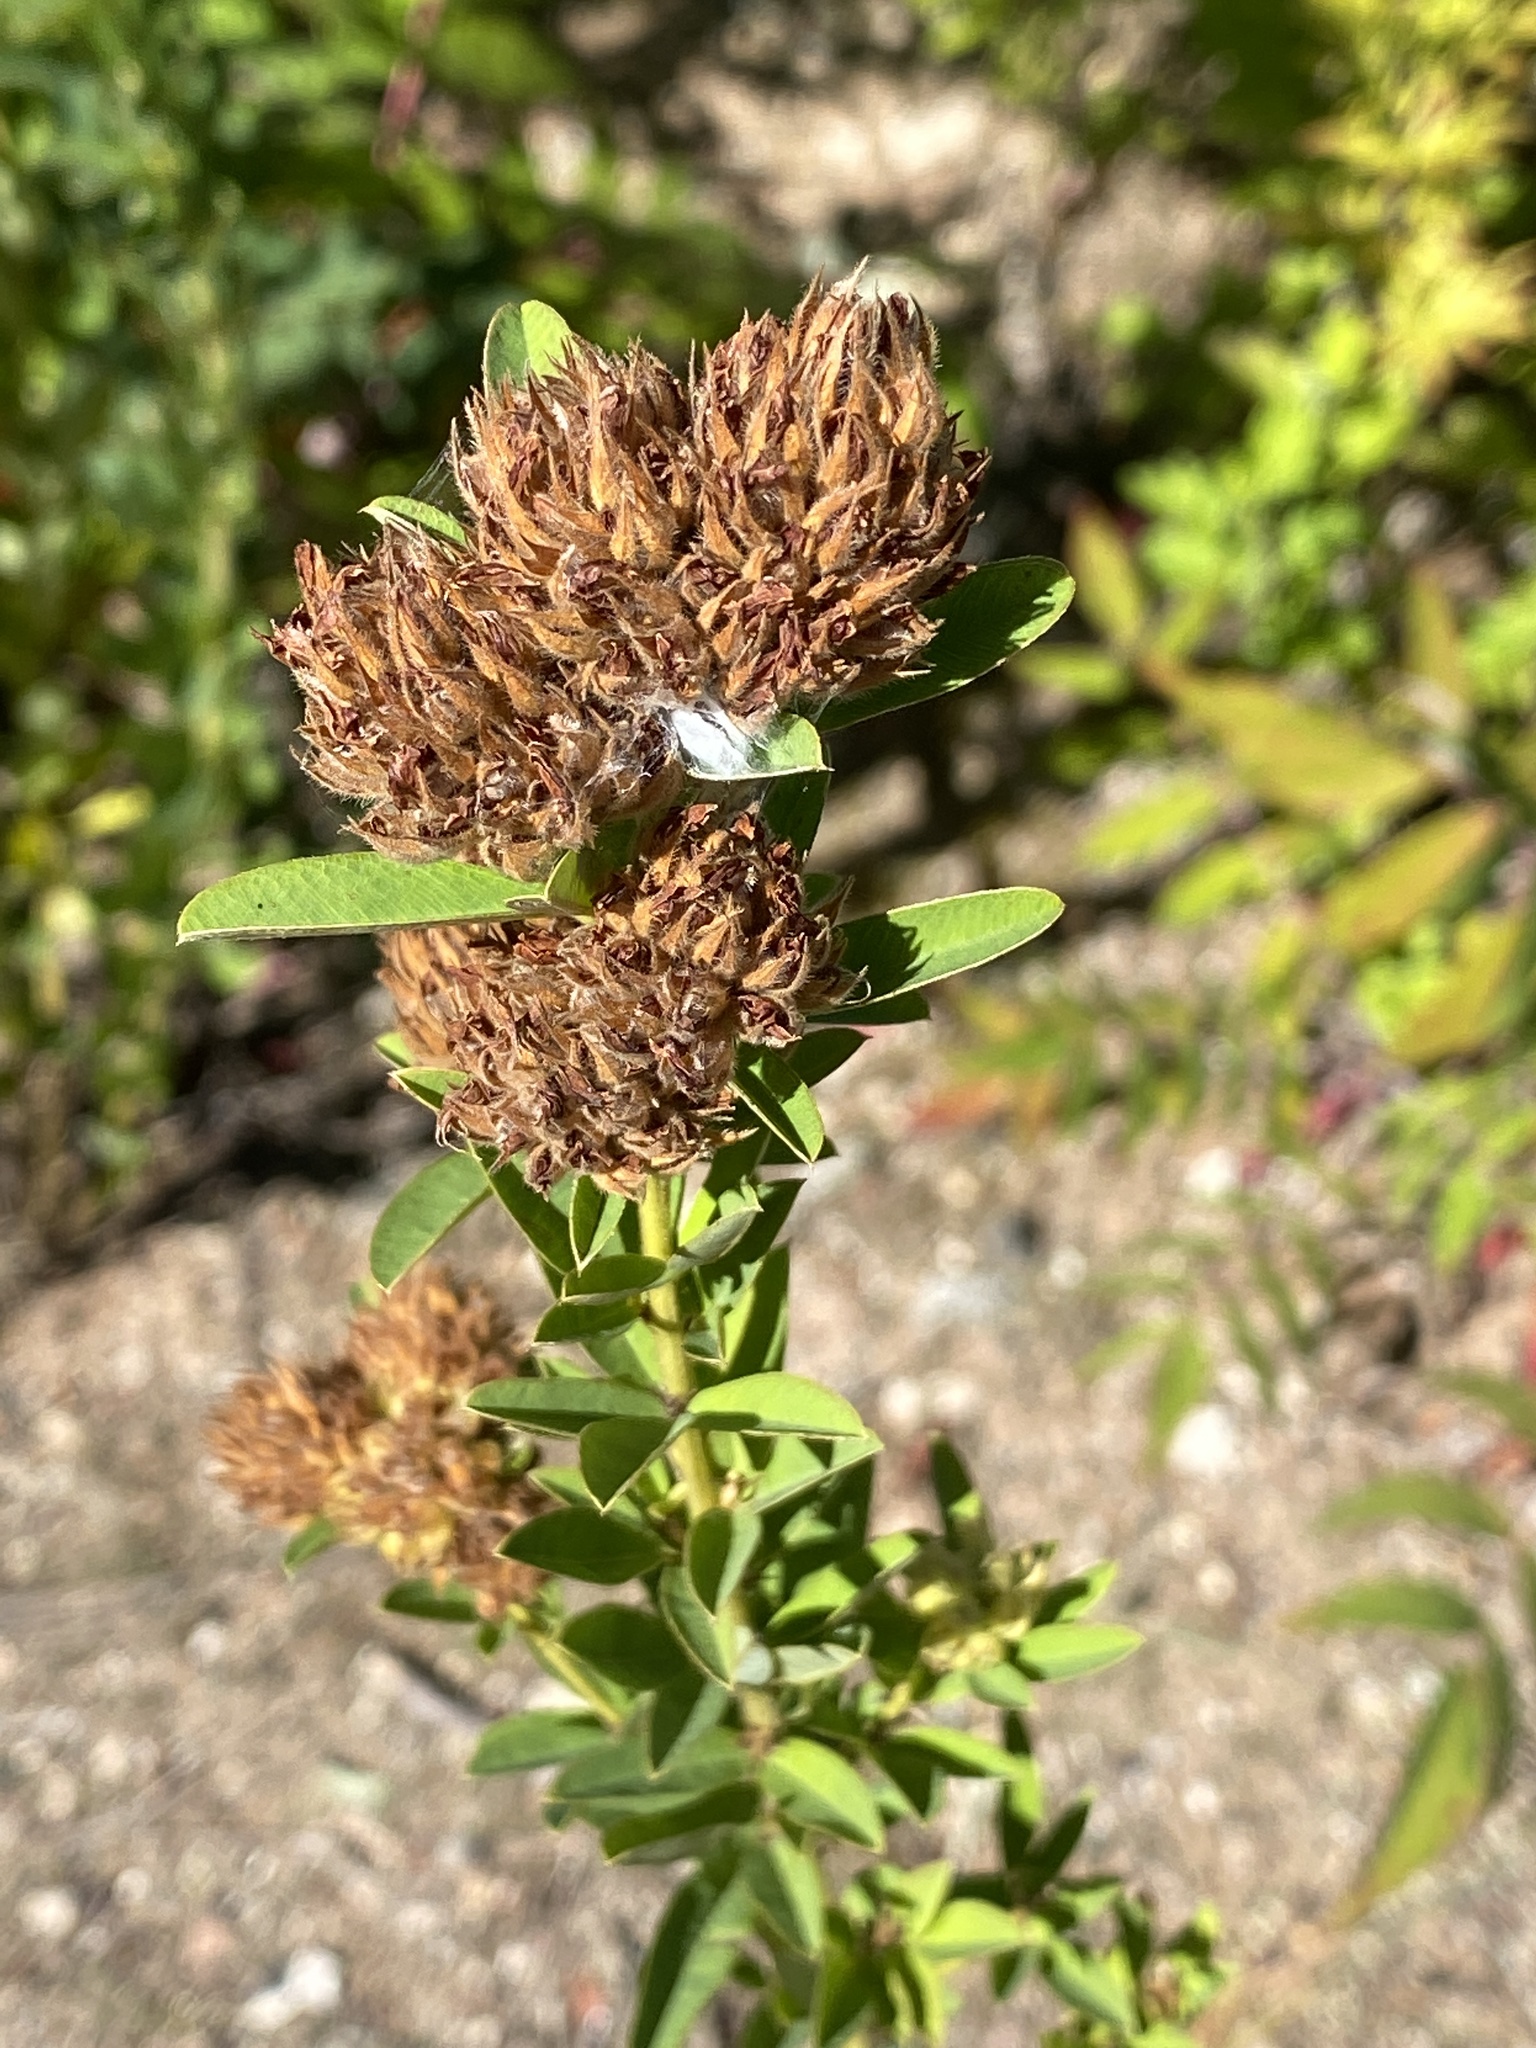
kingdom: Plantae
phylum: Tracheophyta
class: Magnoliopsida
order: Fabales
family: Fabaceae
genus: Lespedeza
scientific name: Lespedeza capitata
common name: Dusty clover
